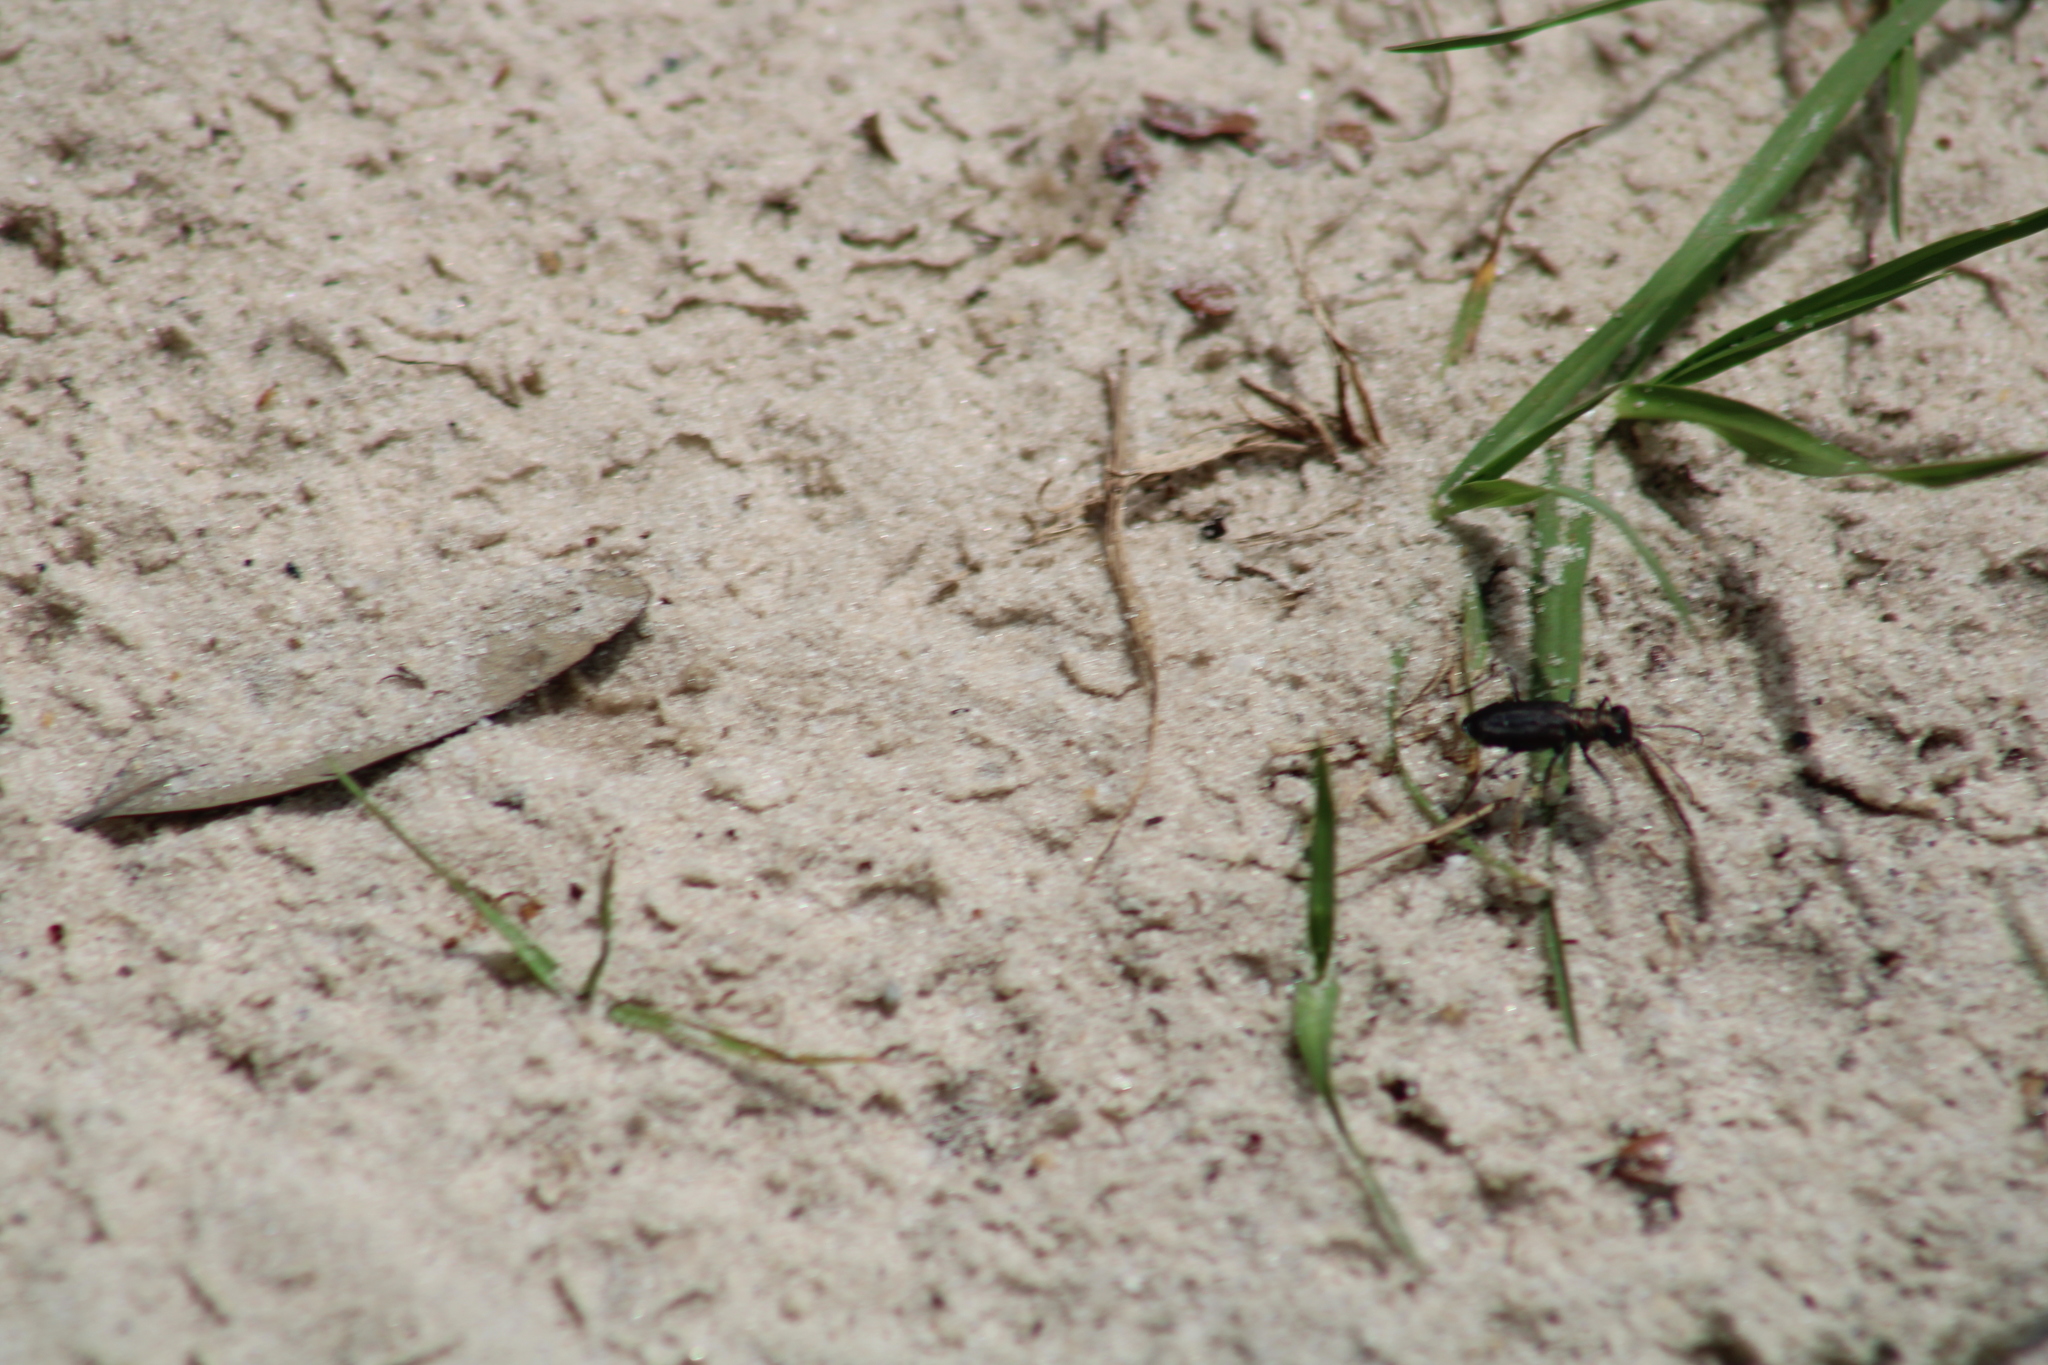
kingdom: Animalia
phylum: Arthropoda
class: Insecta
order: Coleoptera
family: Carabidae
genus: Cicindela
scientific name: Cicindela punctulata
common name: Punctured tiger beetle
